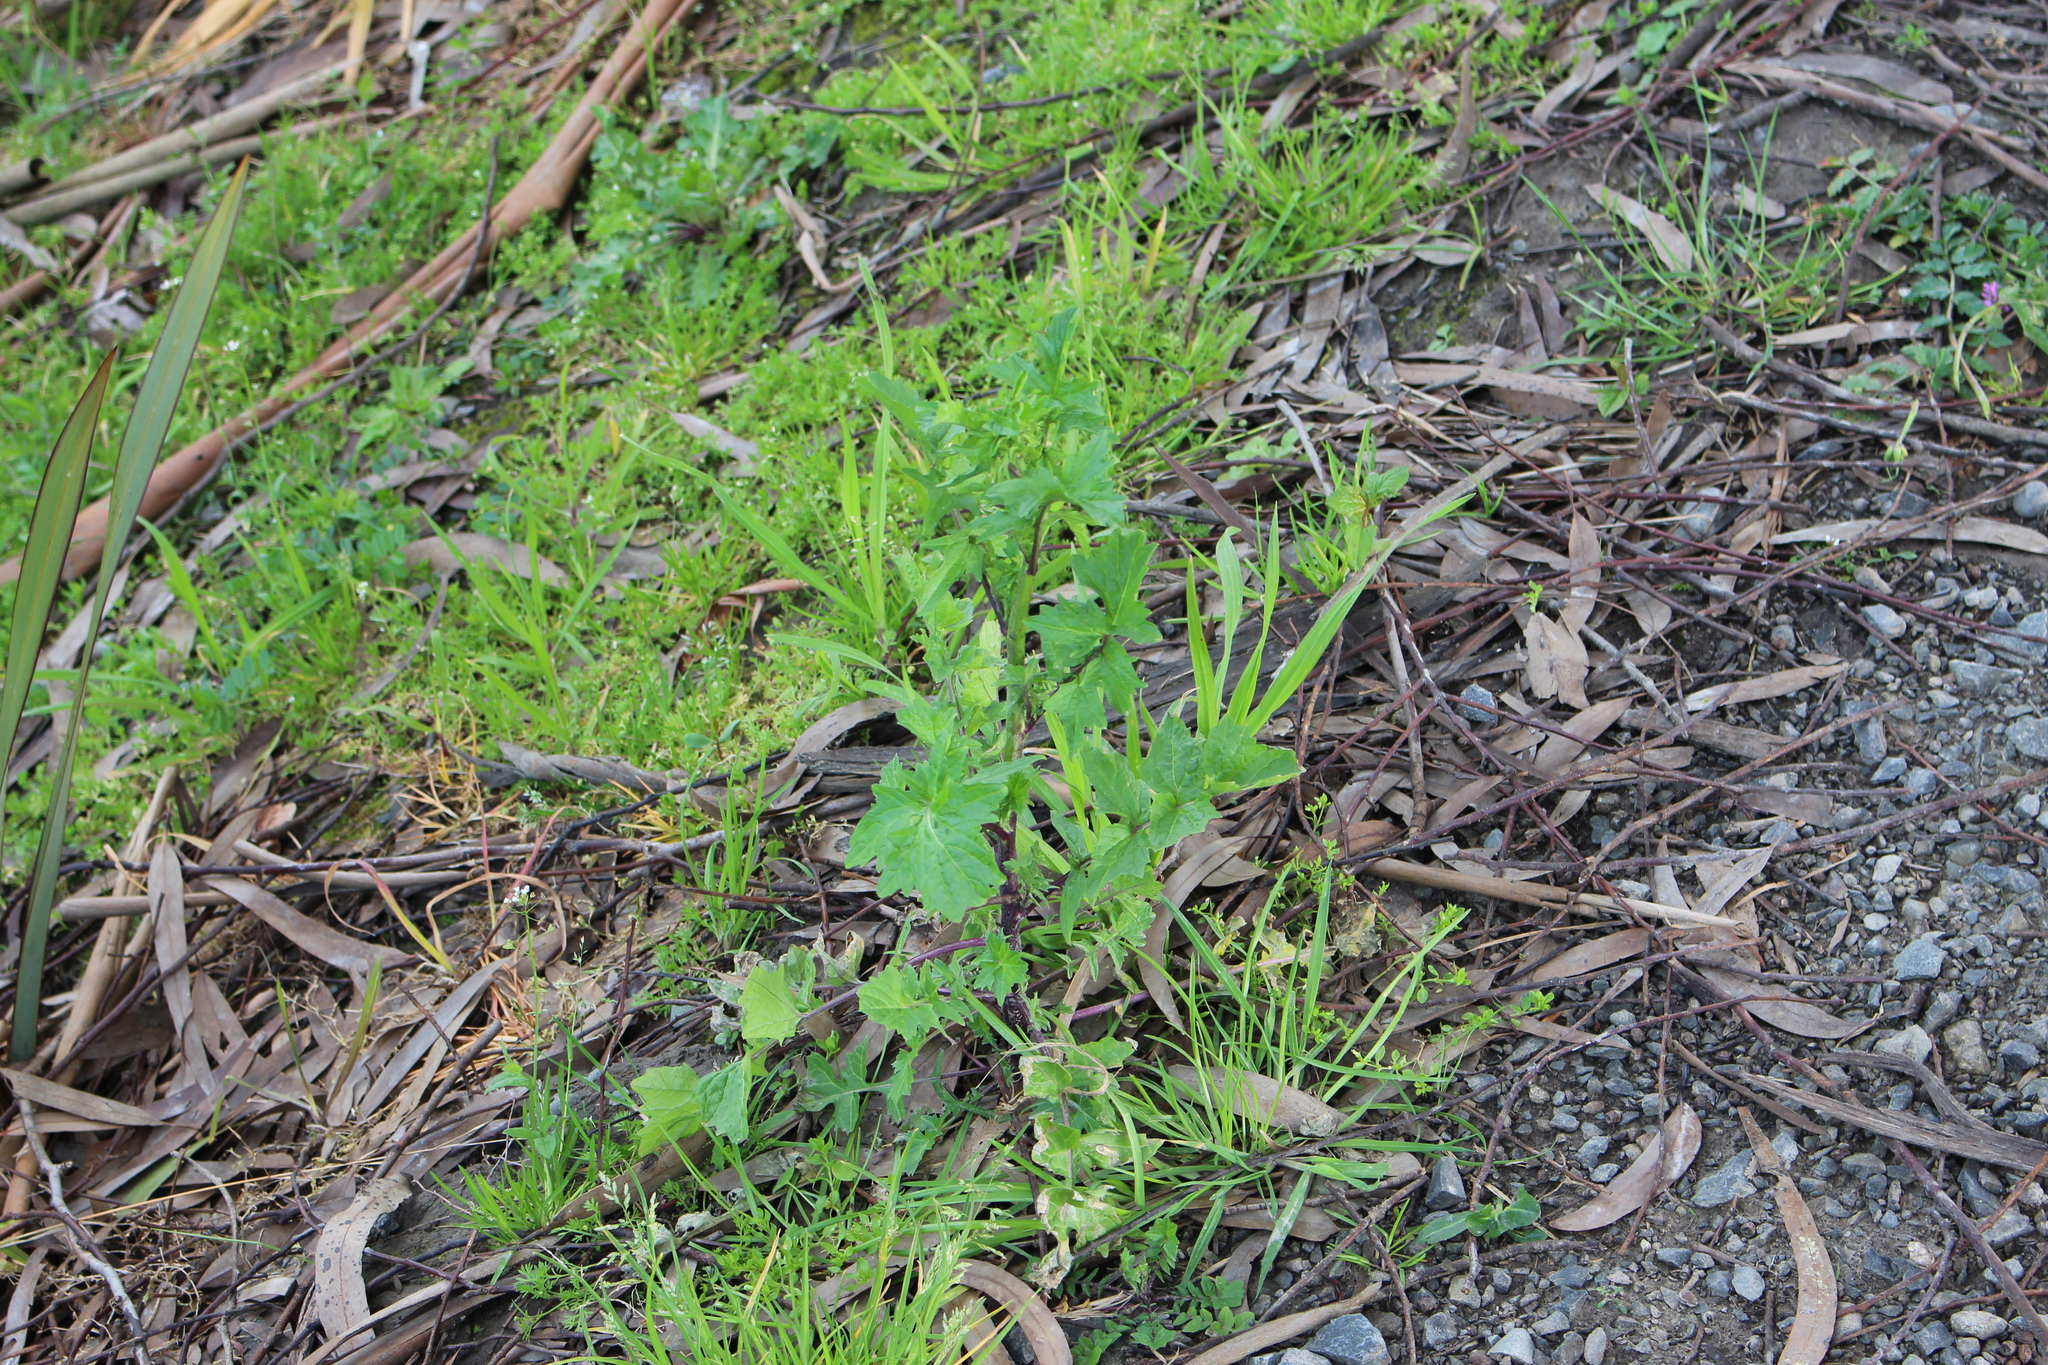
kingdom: Plantae
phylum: Tracheophyta
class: Magnoliopsida
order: Brassicales
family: Brassicaceae
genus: Sisymbrium
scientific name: Sisymbrium officinale
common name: Hedge mustard
